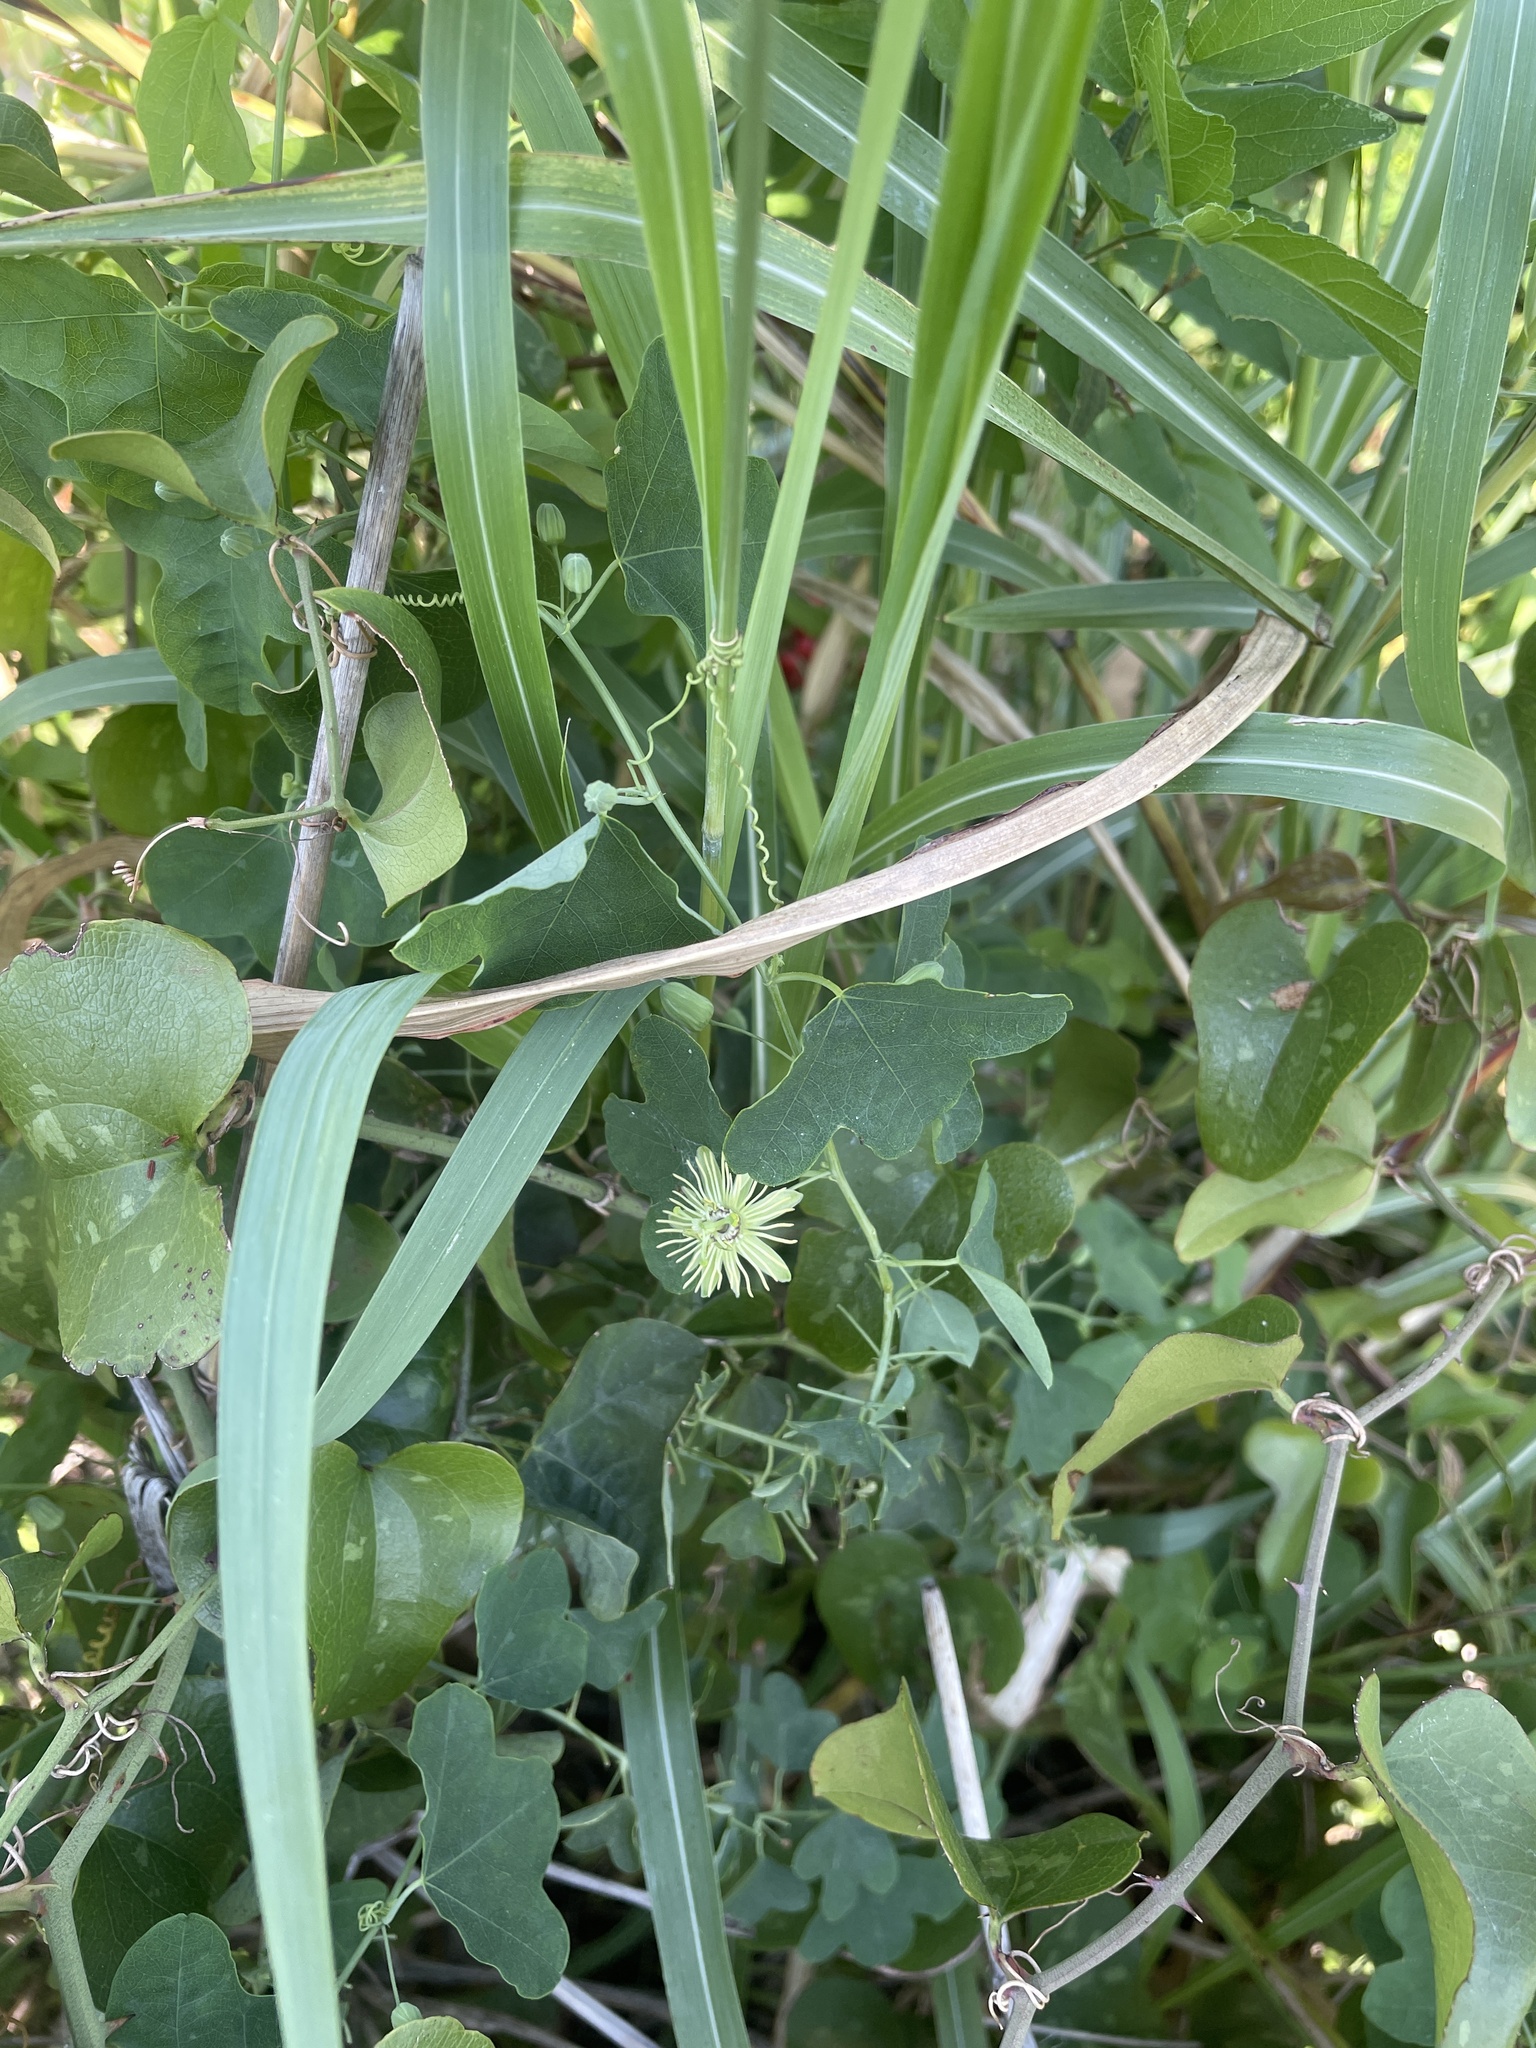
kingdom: Plantae
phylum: Tracheophyta
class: Magnoliopsida
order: Malpighiales
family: Passifloraceae
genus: Passiflora
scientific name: Passiflora lutea
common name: Yellow passionflower
